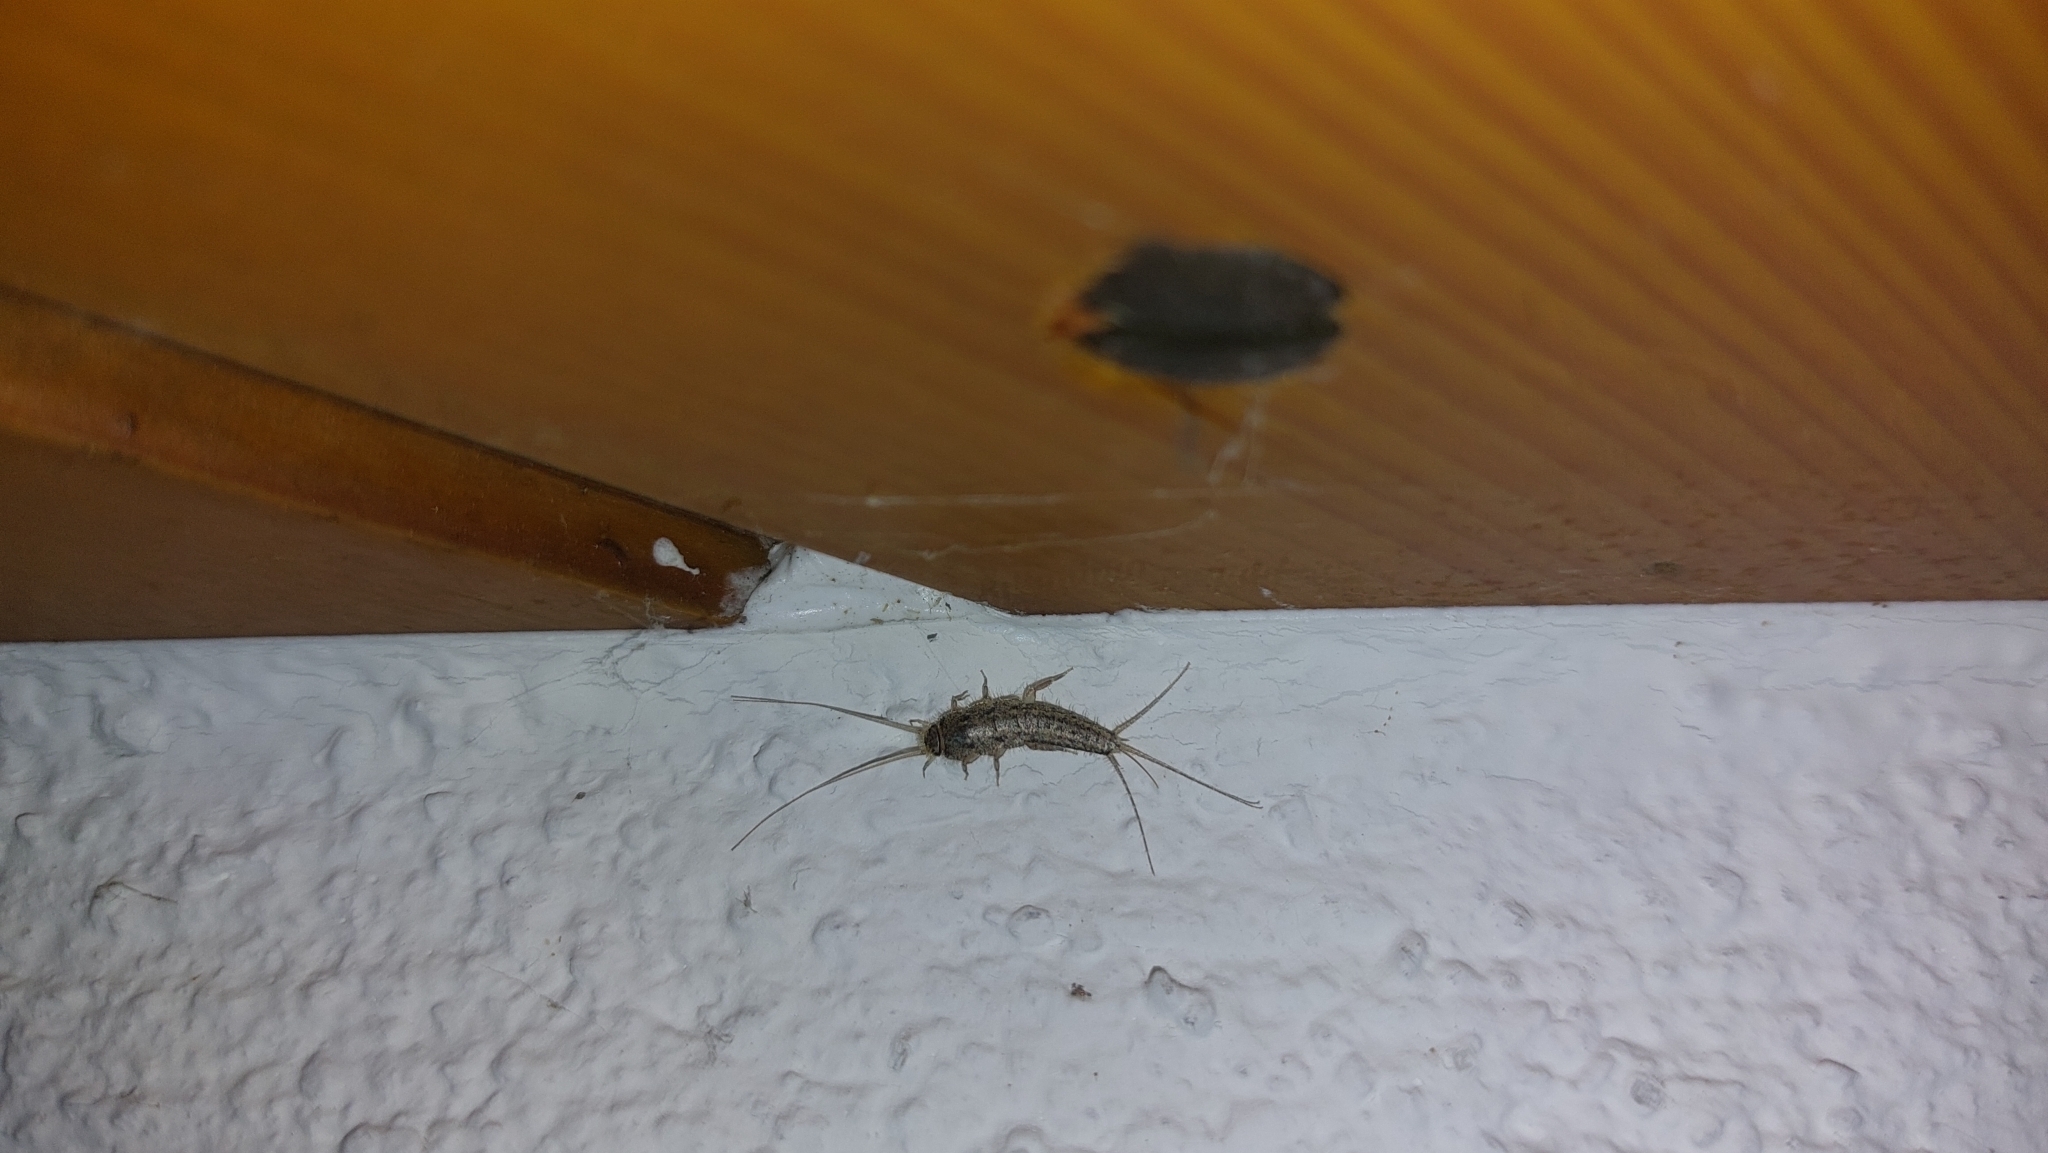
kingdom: Animalia
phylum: Arthropoda
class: Insecta
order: Zygentoma
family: Lepismatidae
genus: Ctenolepisma
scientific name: Ctenolepisma lineata
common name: Four-lined silverfish
